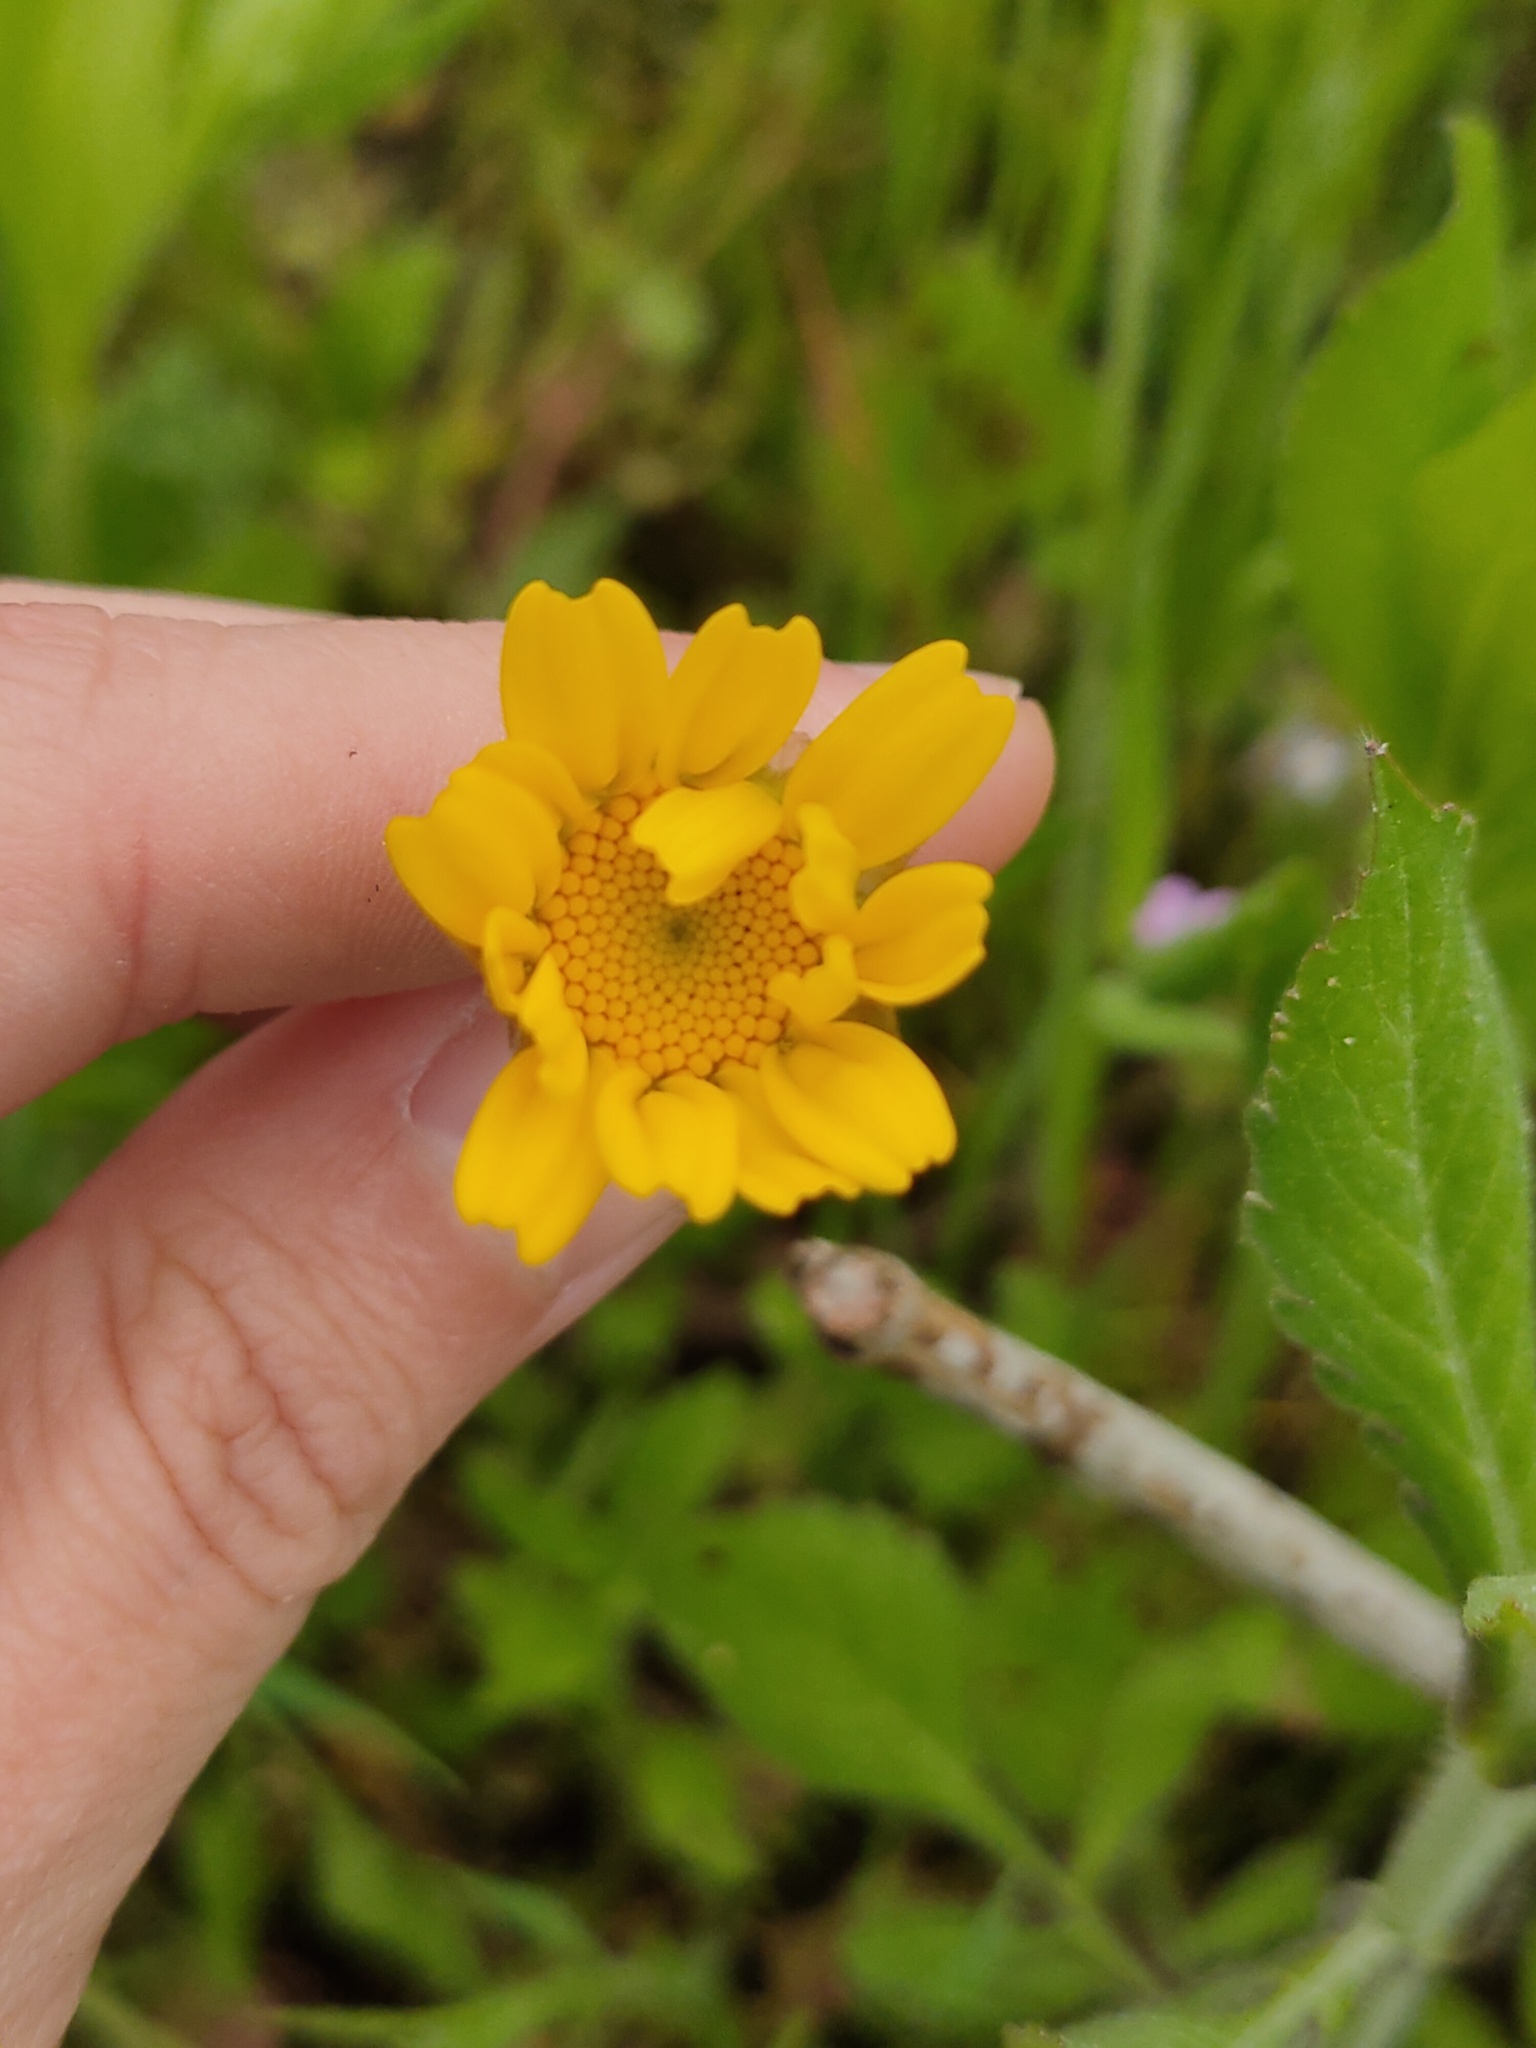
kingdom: Plantae
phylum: Tracheophyta
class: Magnoliopsida
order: Asterales
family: Asteraceae
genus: Glebionis
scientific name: Glebionis segetum
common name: Corndaisy
